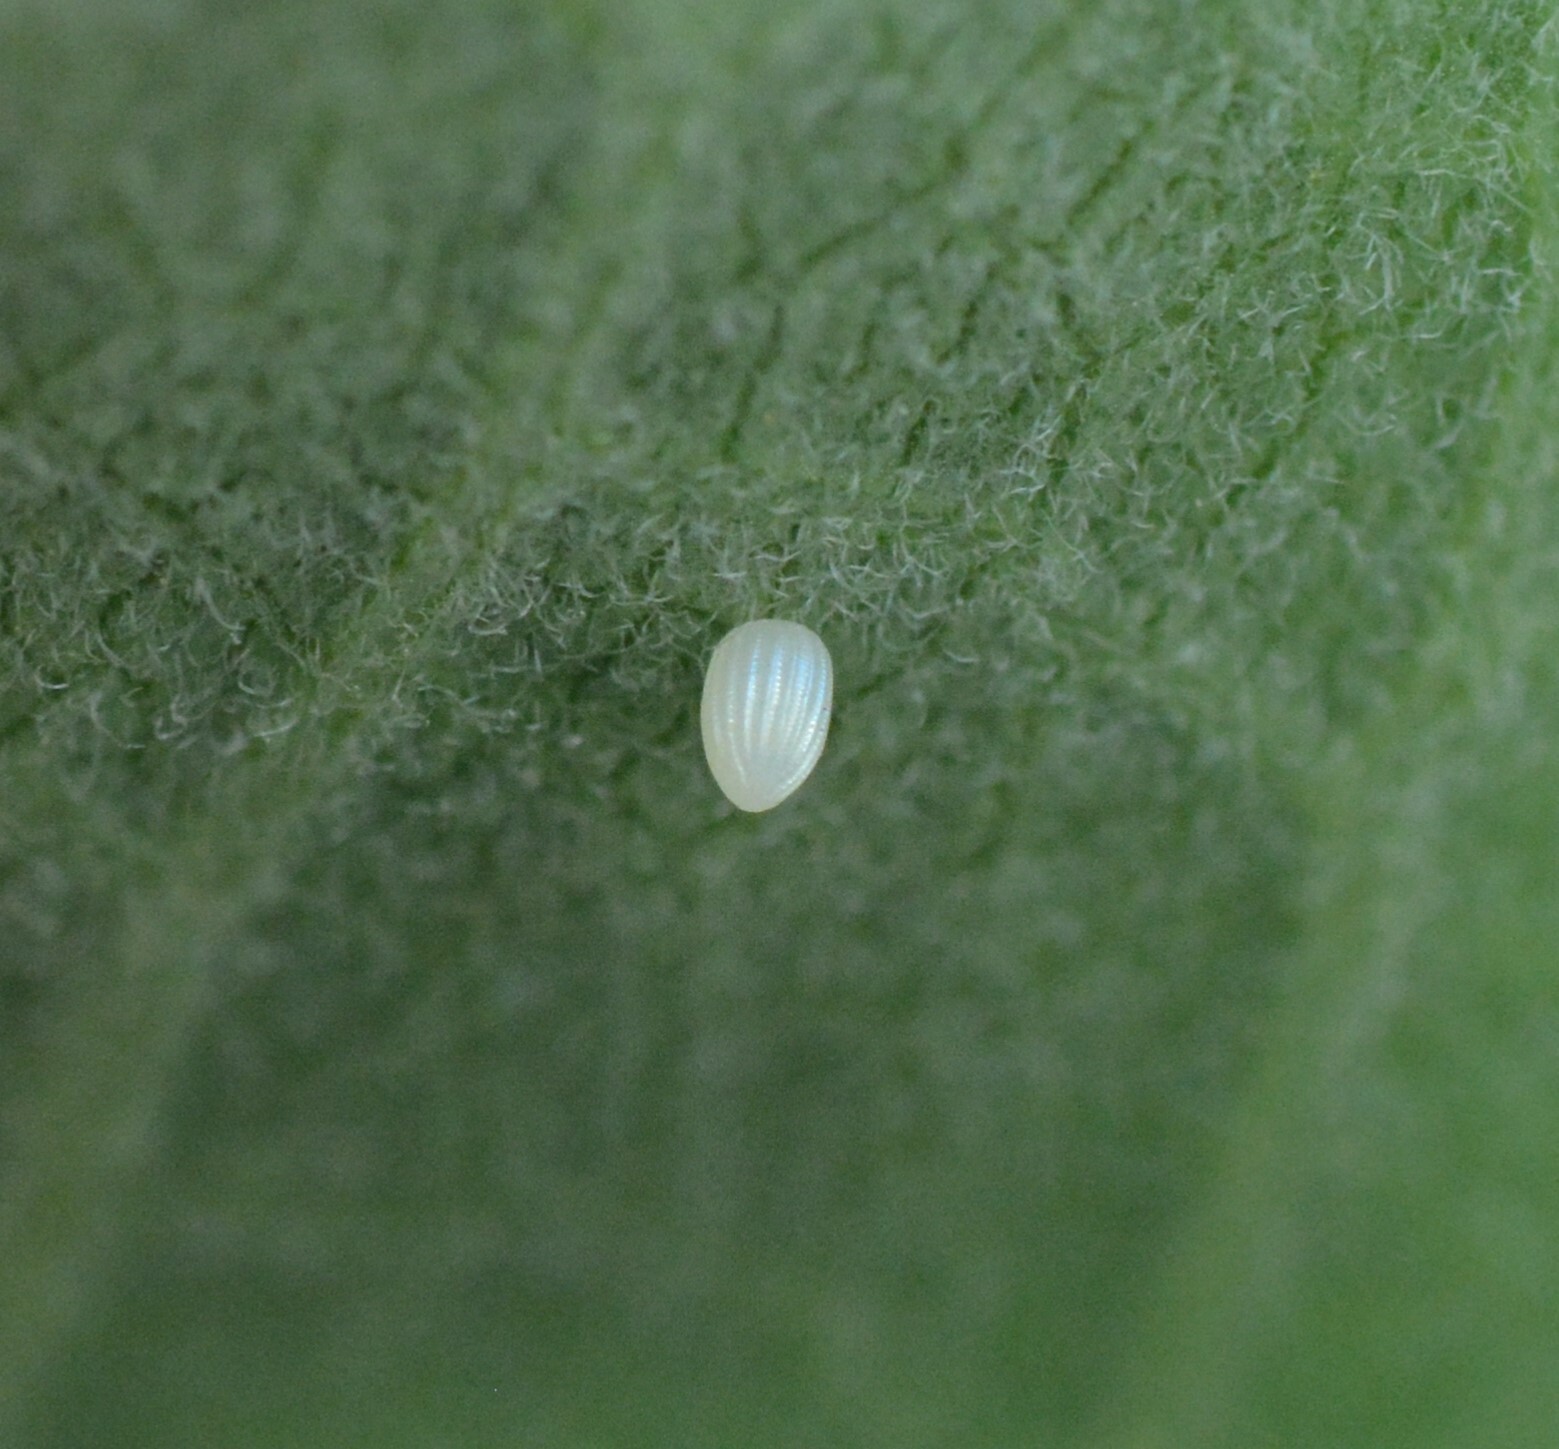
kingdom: Animalia
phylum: Arthropoda
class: Insecta
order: Lepidoptera
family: Nymphalidae
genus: Danaus
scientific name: Danaus plexippus
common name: Monarch
